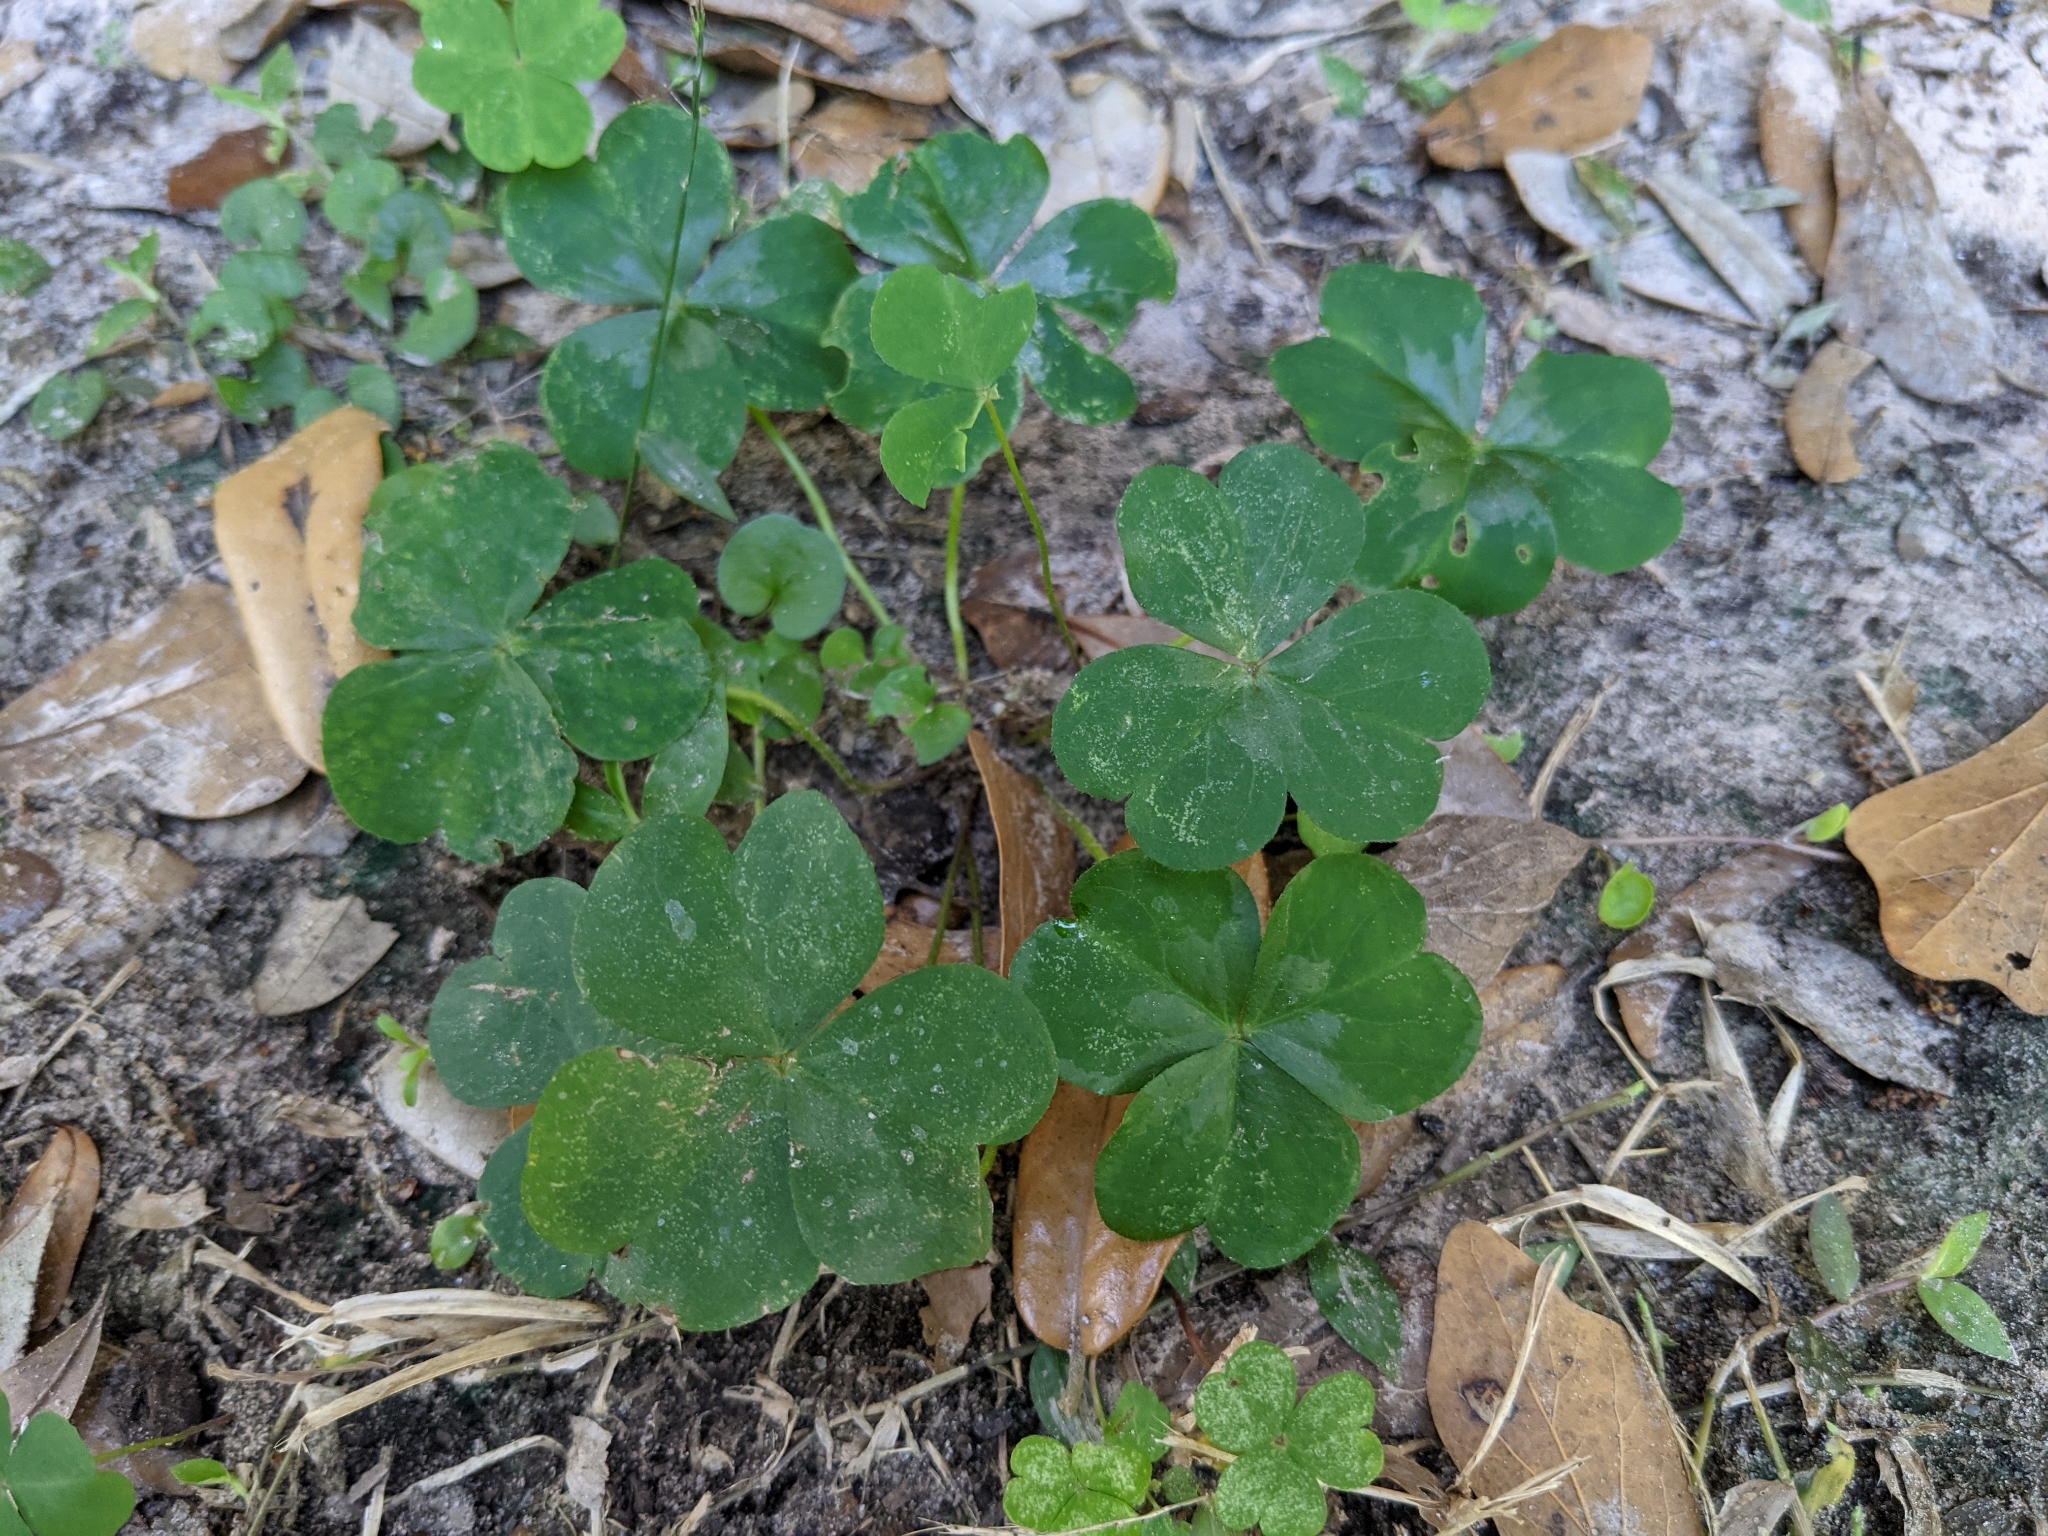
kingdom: Plantae
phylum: Tracheophyta
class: Magnoliopsida
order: Oxalidales
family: Oxalidaceae
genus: Oxalis
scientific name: Oxalis debilis
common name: Large-flowered pink-sorrel
